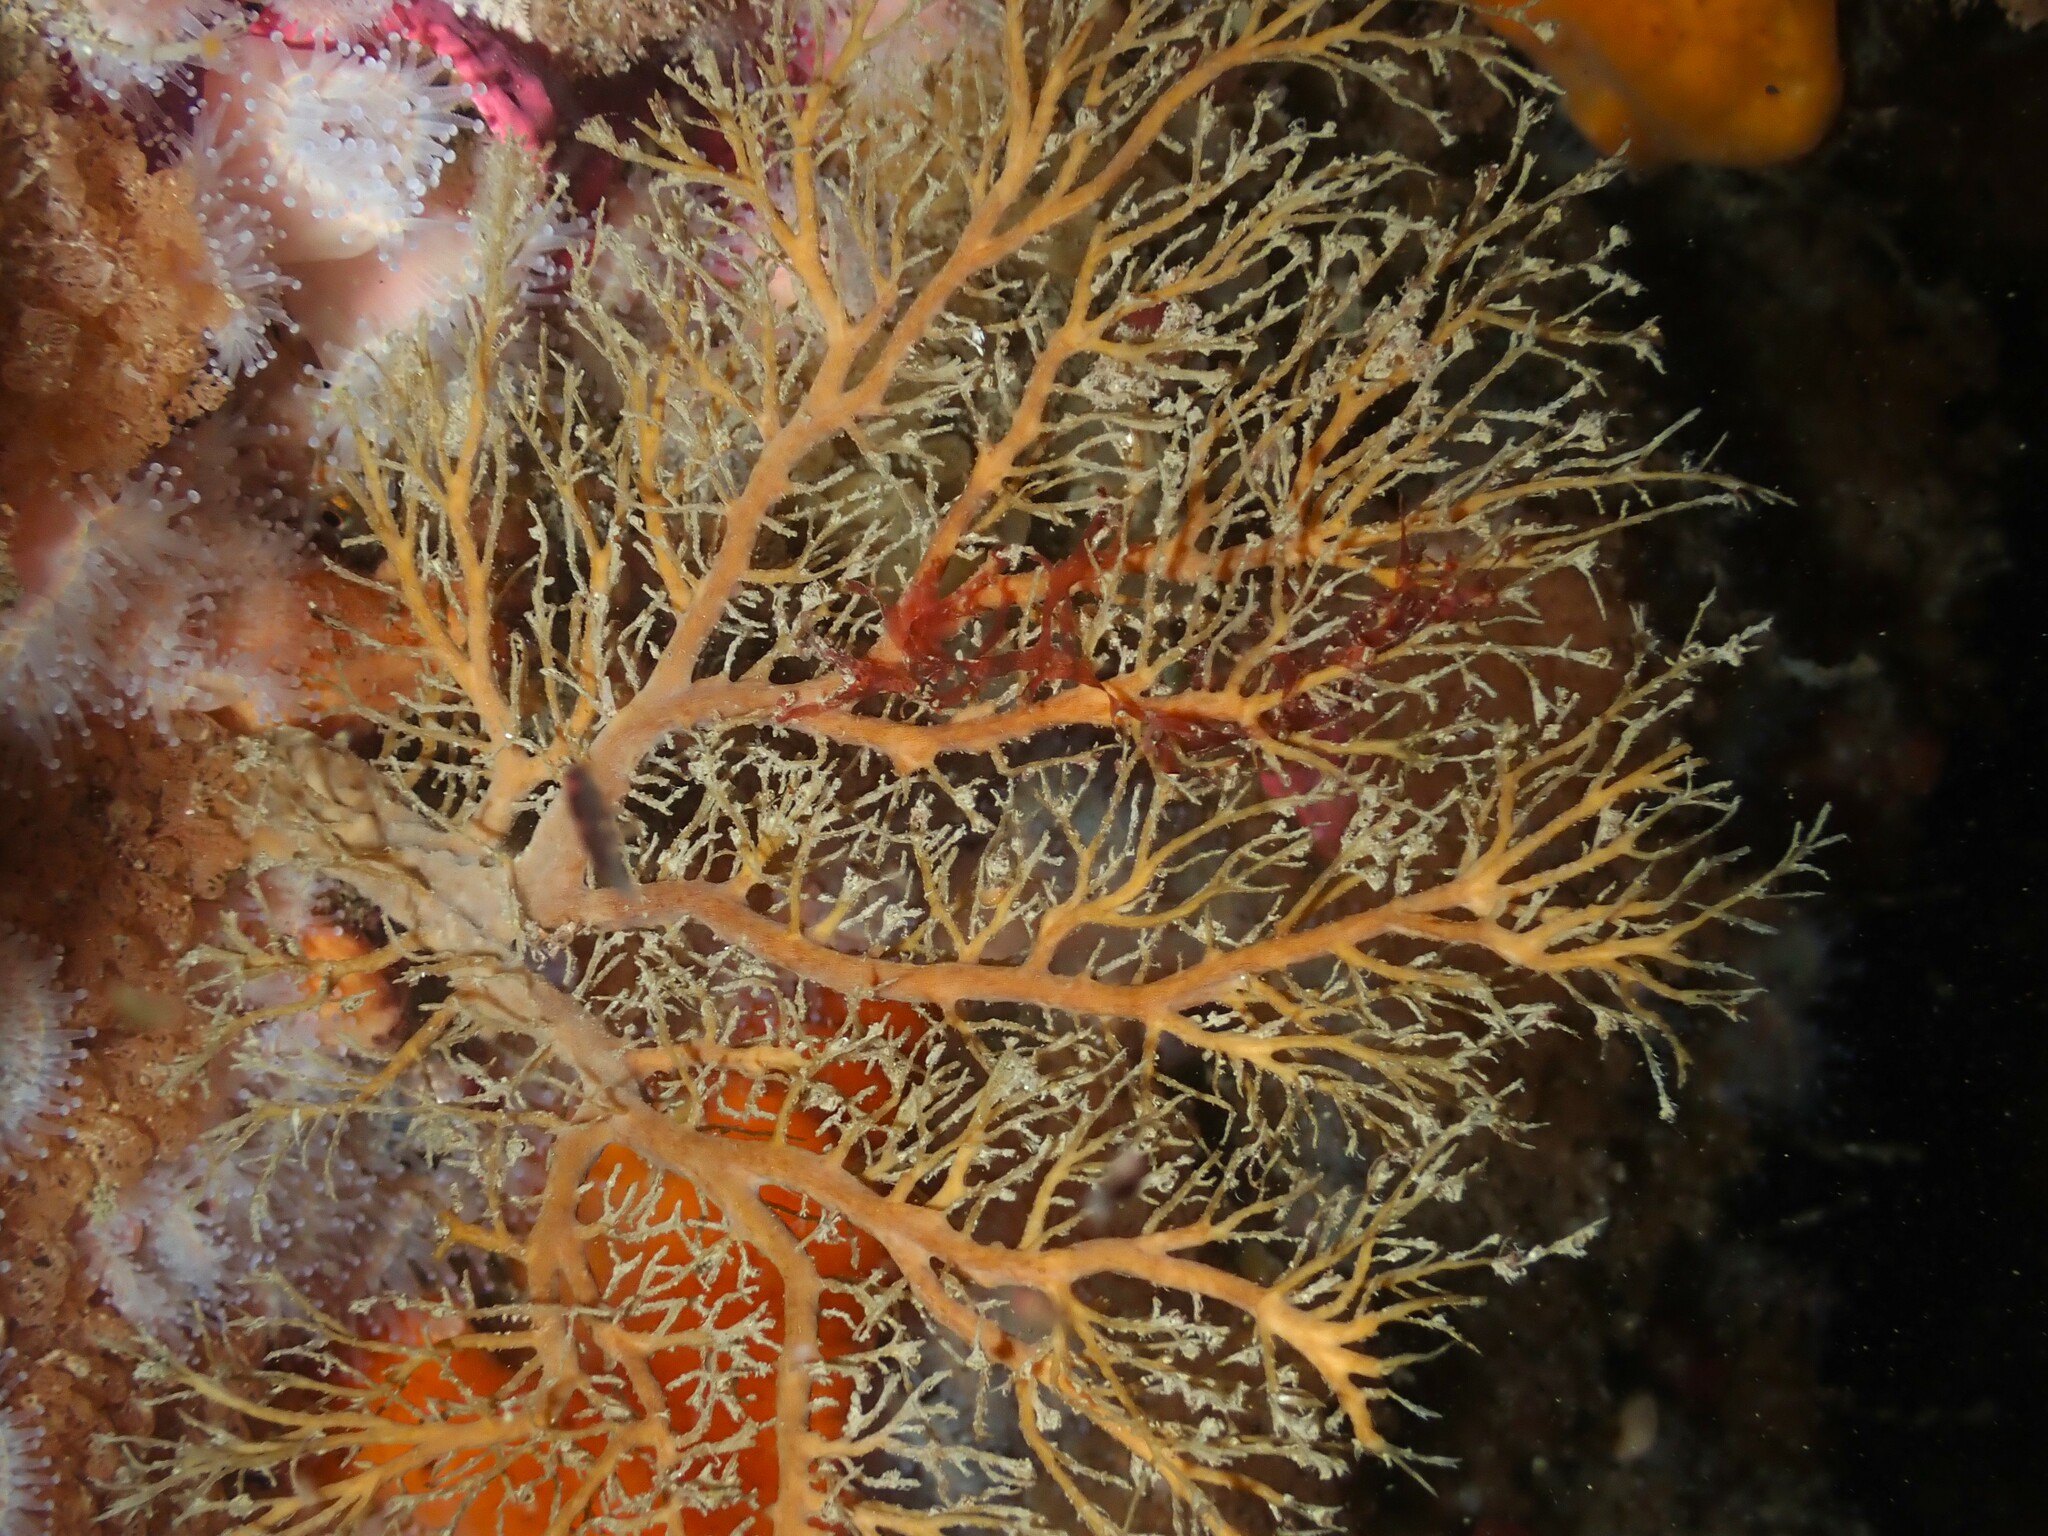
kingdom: Animalia
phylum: Cnidaria
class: Hydrozoa
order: Anthoathecata
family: Solanderiidae
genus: Solanderia
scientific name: Solanderia ericopsis
